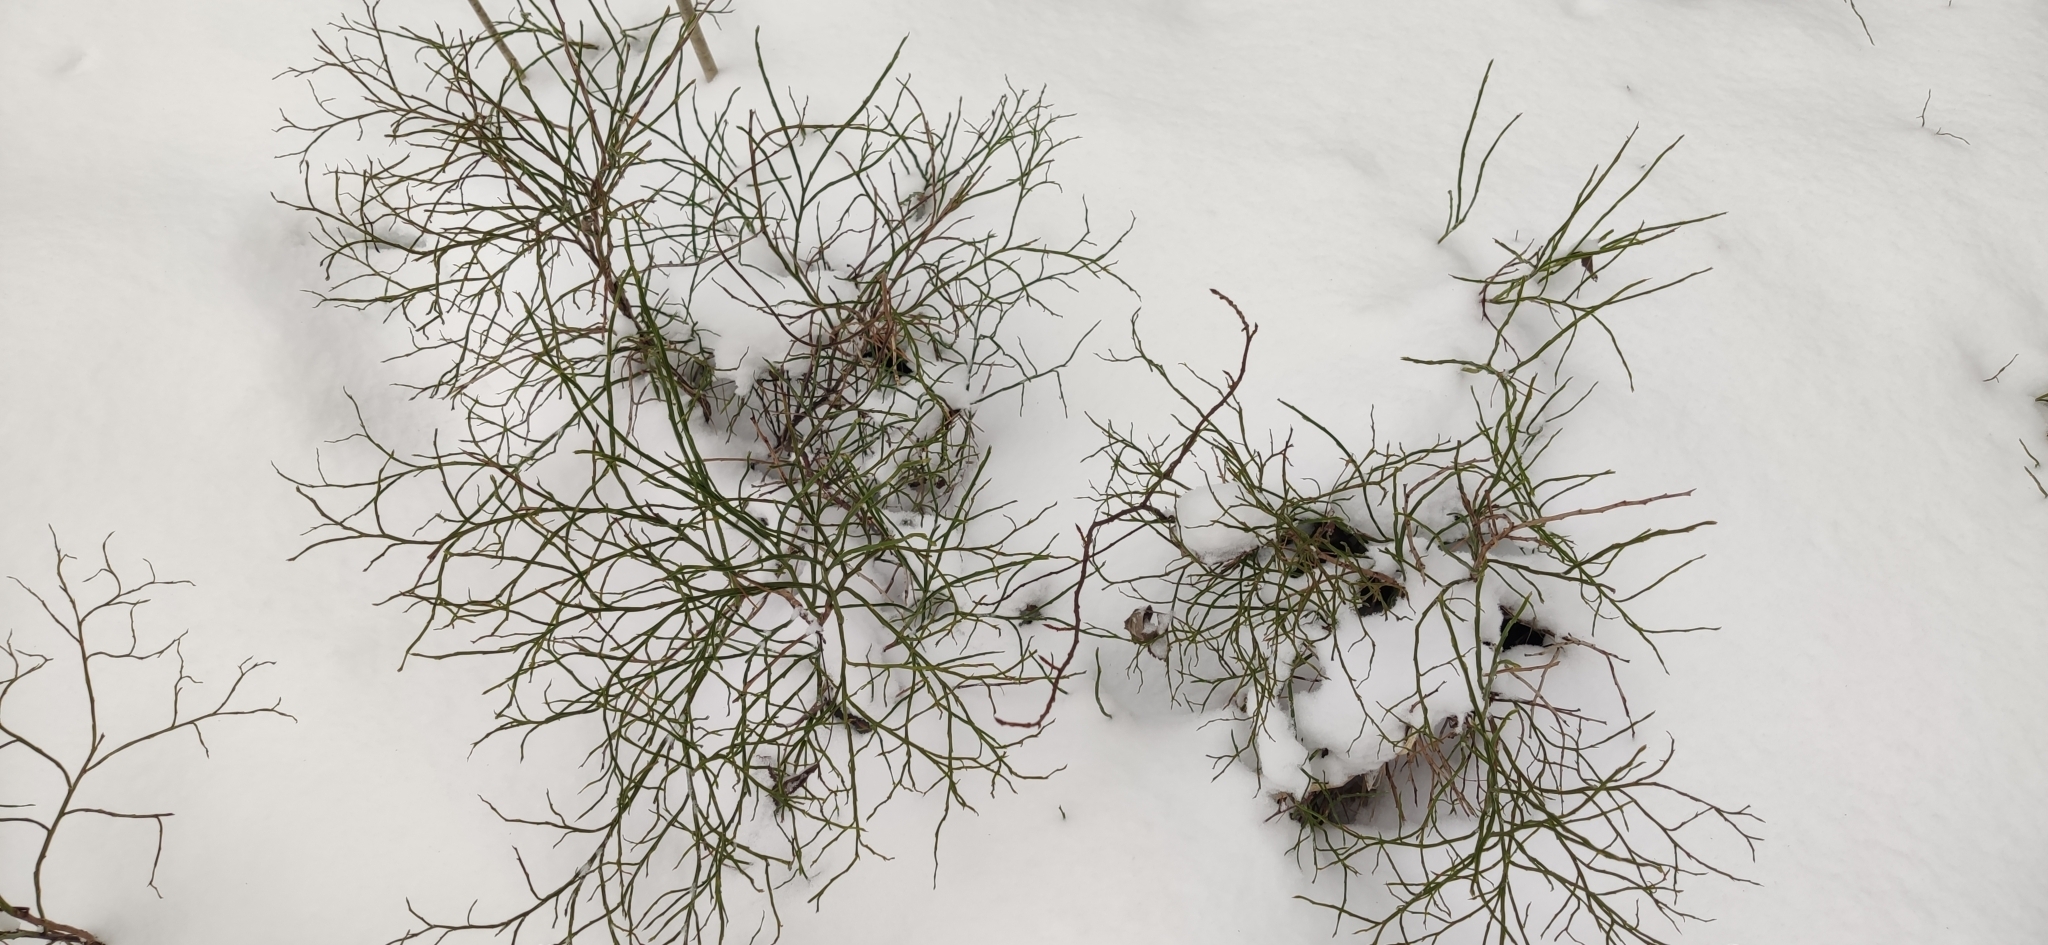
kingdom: Plantae
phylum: Tracheophyta
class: Magnoliopsida
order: Ericales
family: Ericaceae
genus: Vaccinium
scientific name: Vaccinium myrtillus
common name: Bilberry
